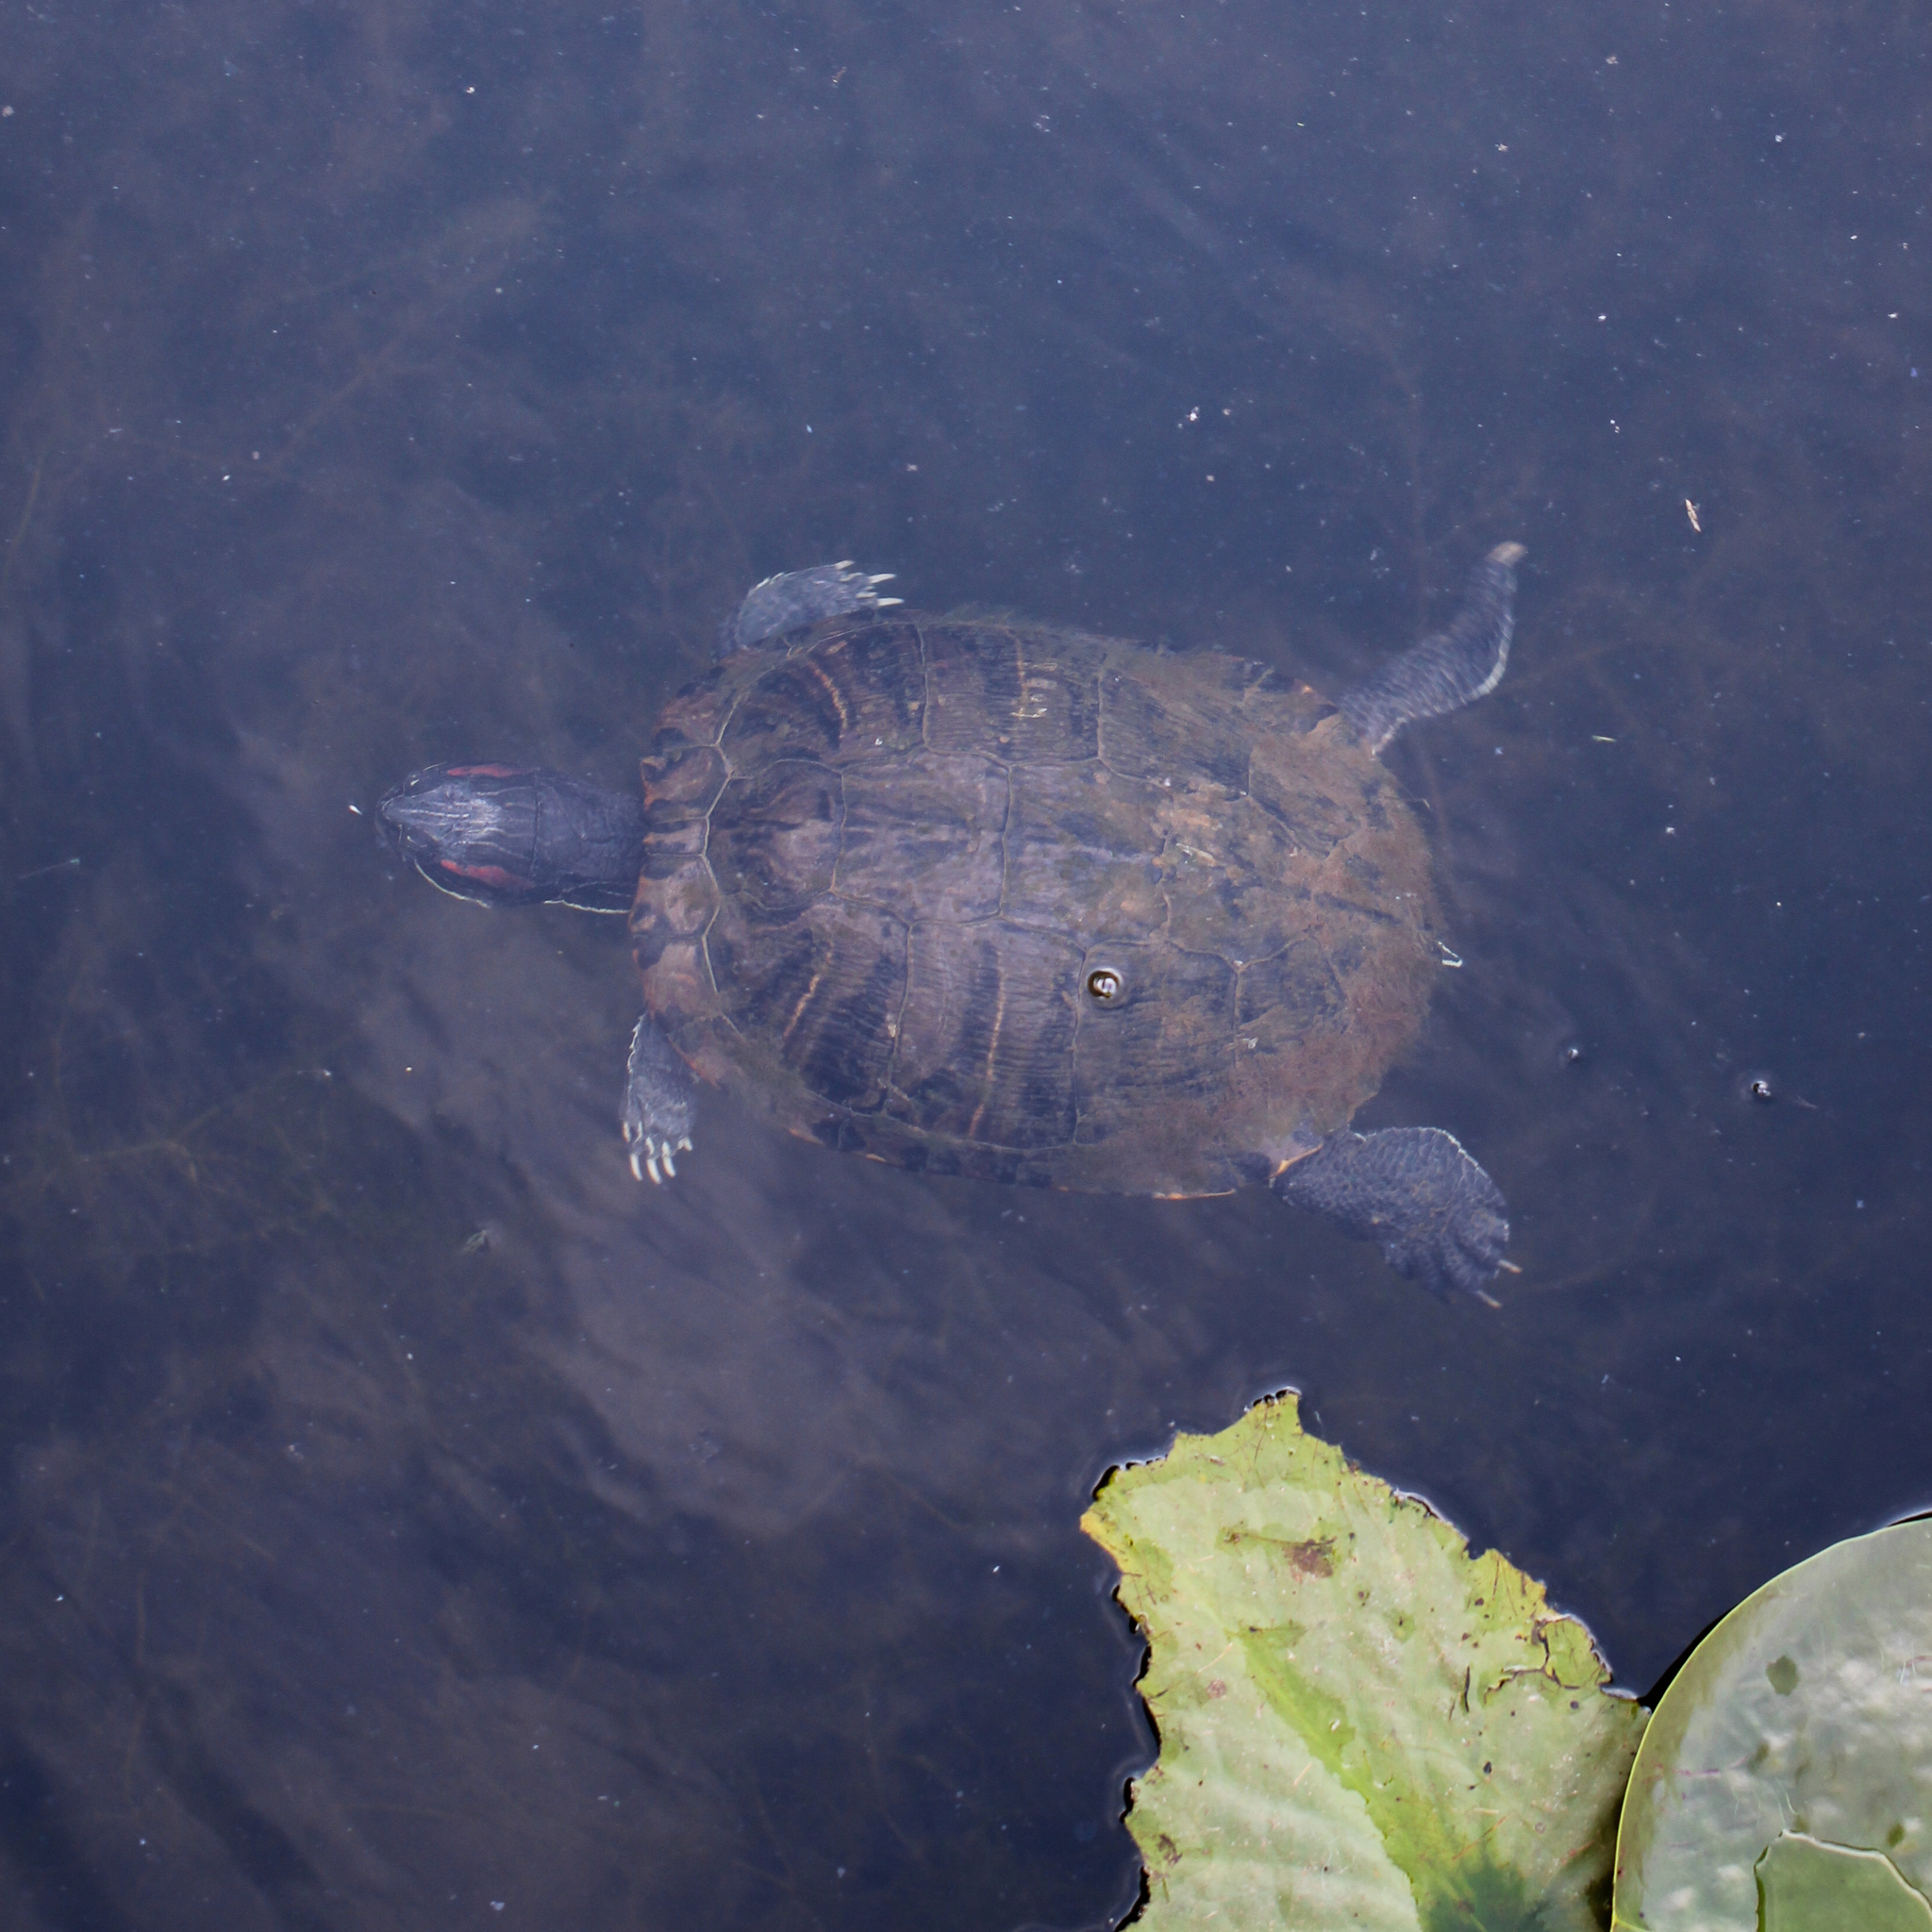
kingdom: Animalia
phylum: Chordata
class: Testudines
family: Emydidae
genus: Trachemys
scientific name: Trachemys scripta
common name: Slider
